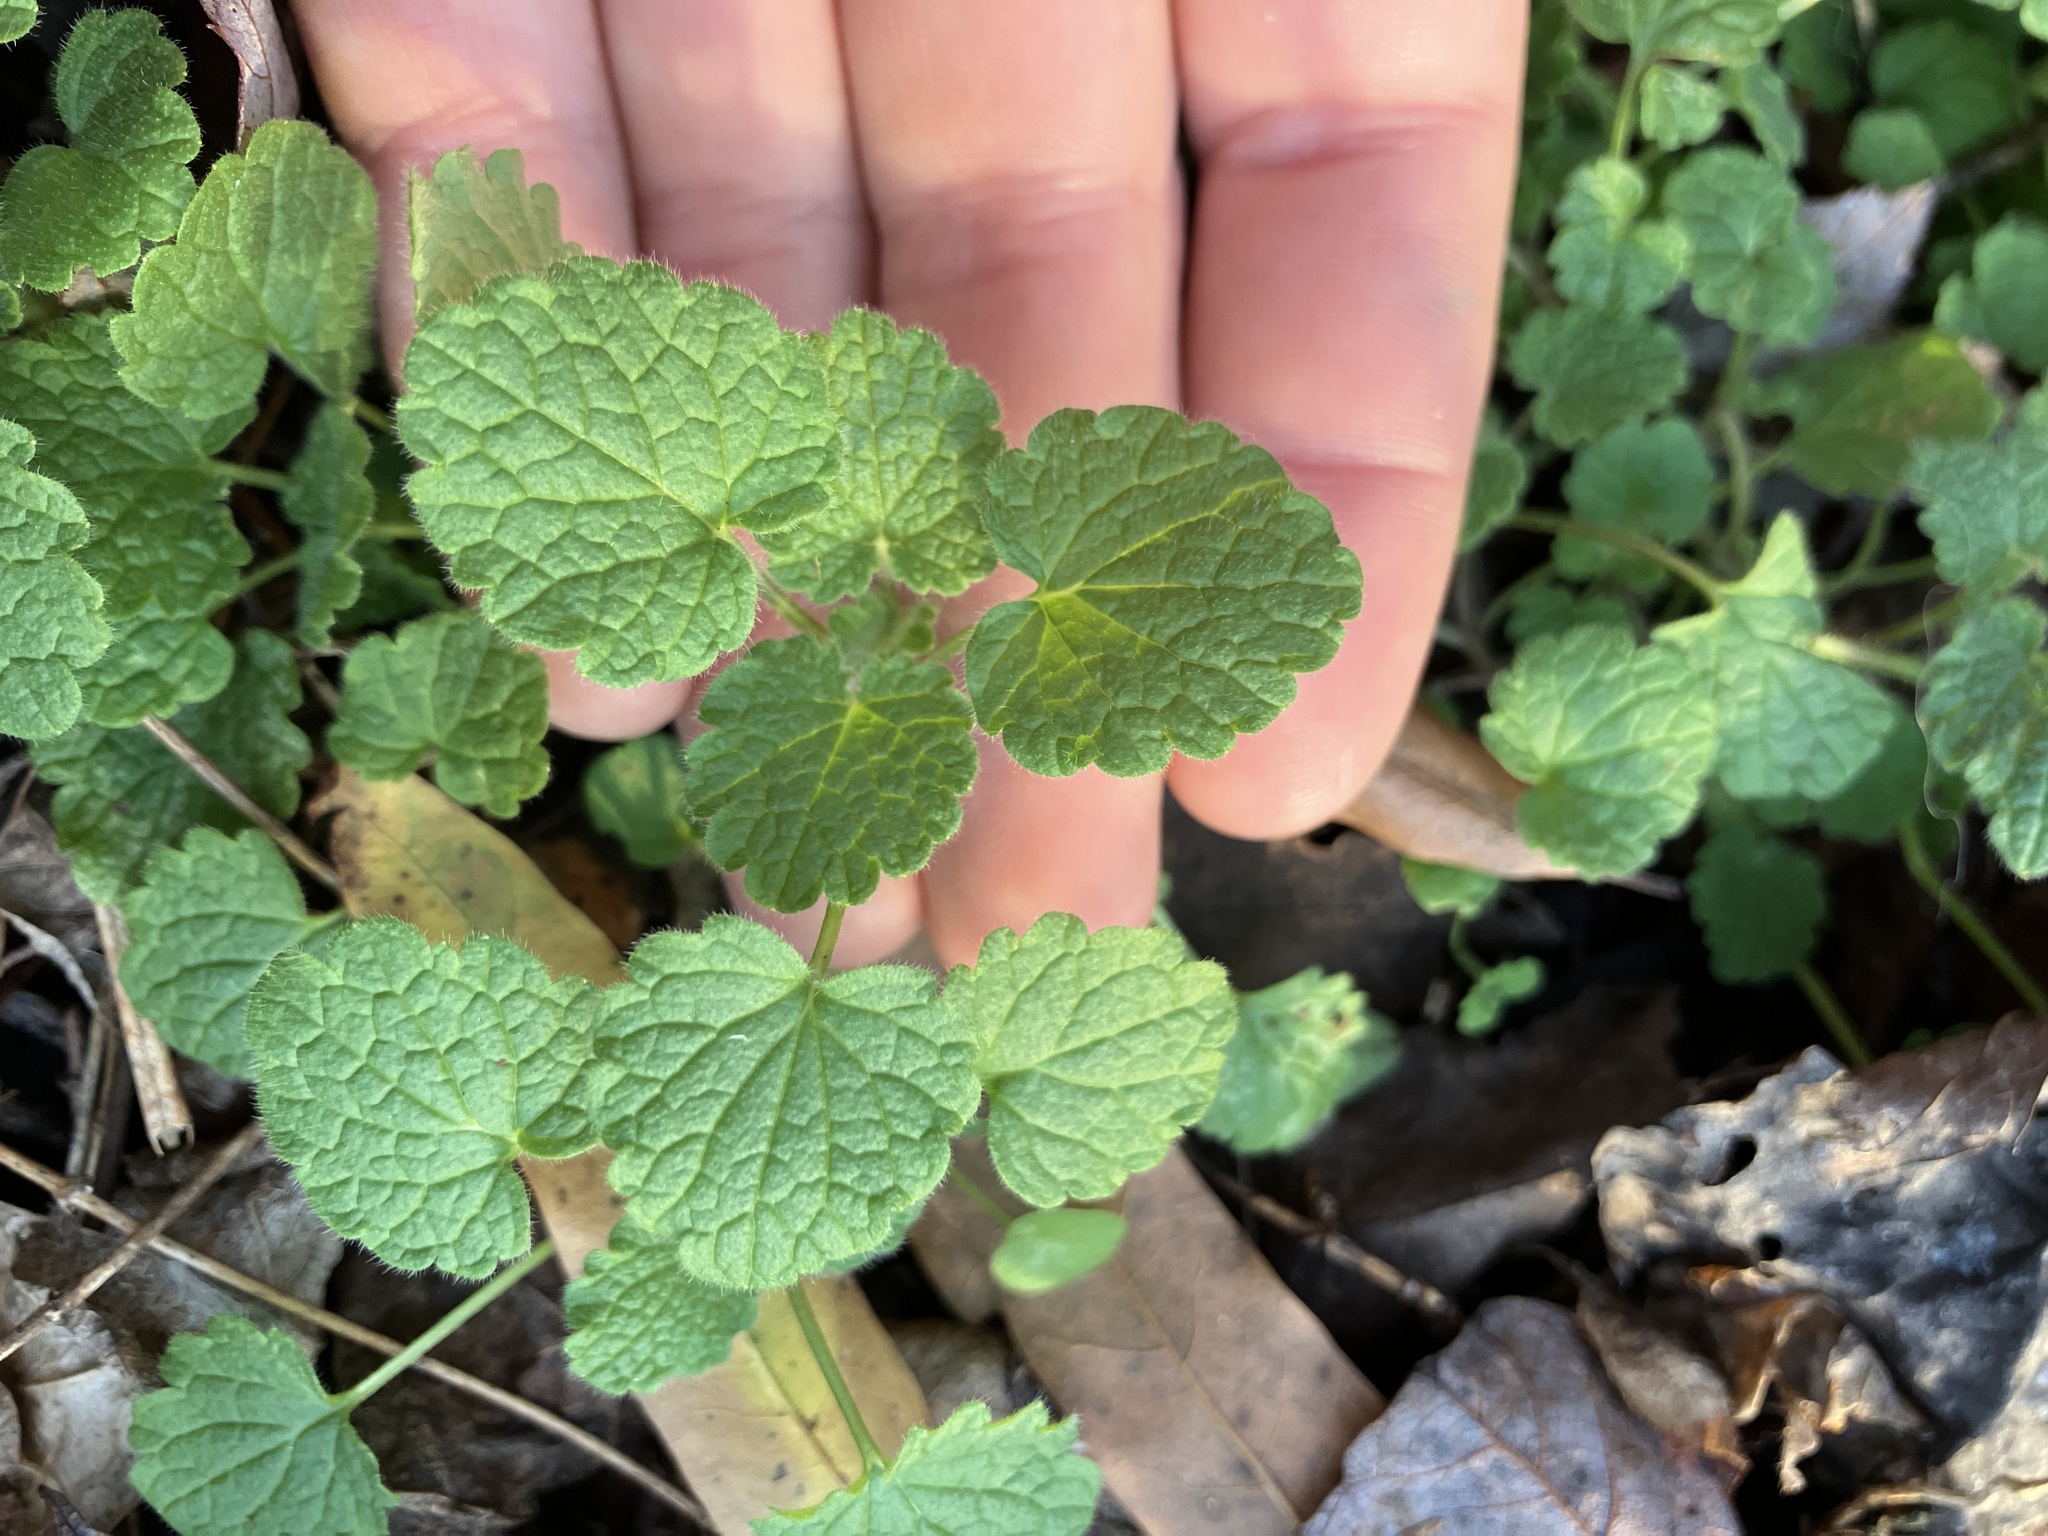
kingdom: Plantae
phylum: Tracheophyta
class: Magnoliopsida
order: Lamiales
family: Lamiaceae
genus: Lamium
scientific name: Lamium purpureum
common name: Red dead-nettle
